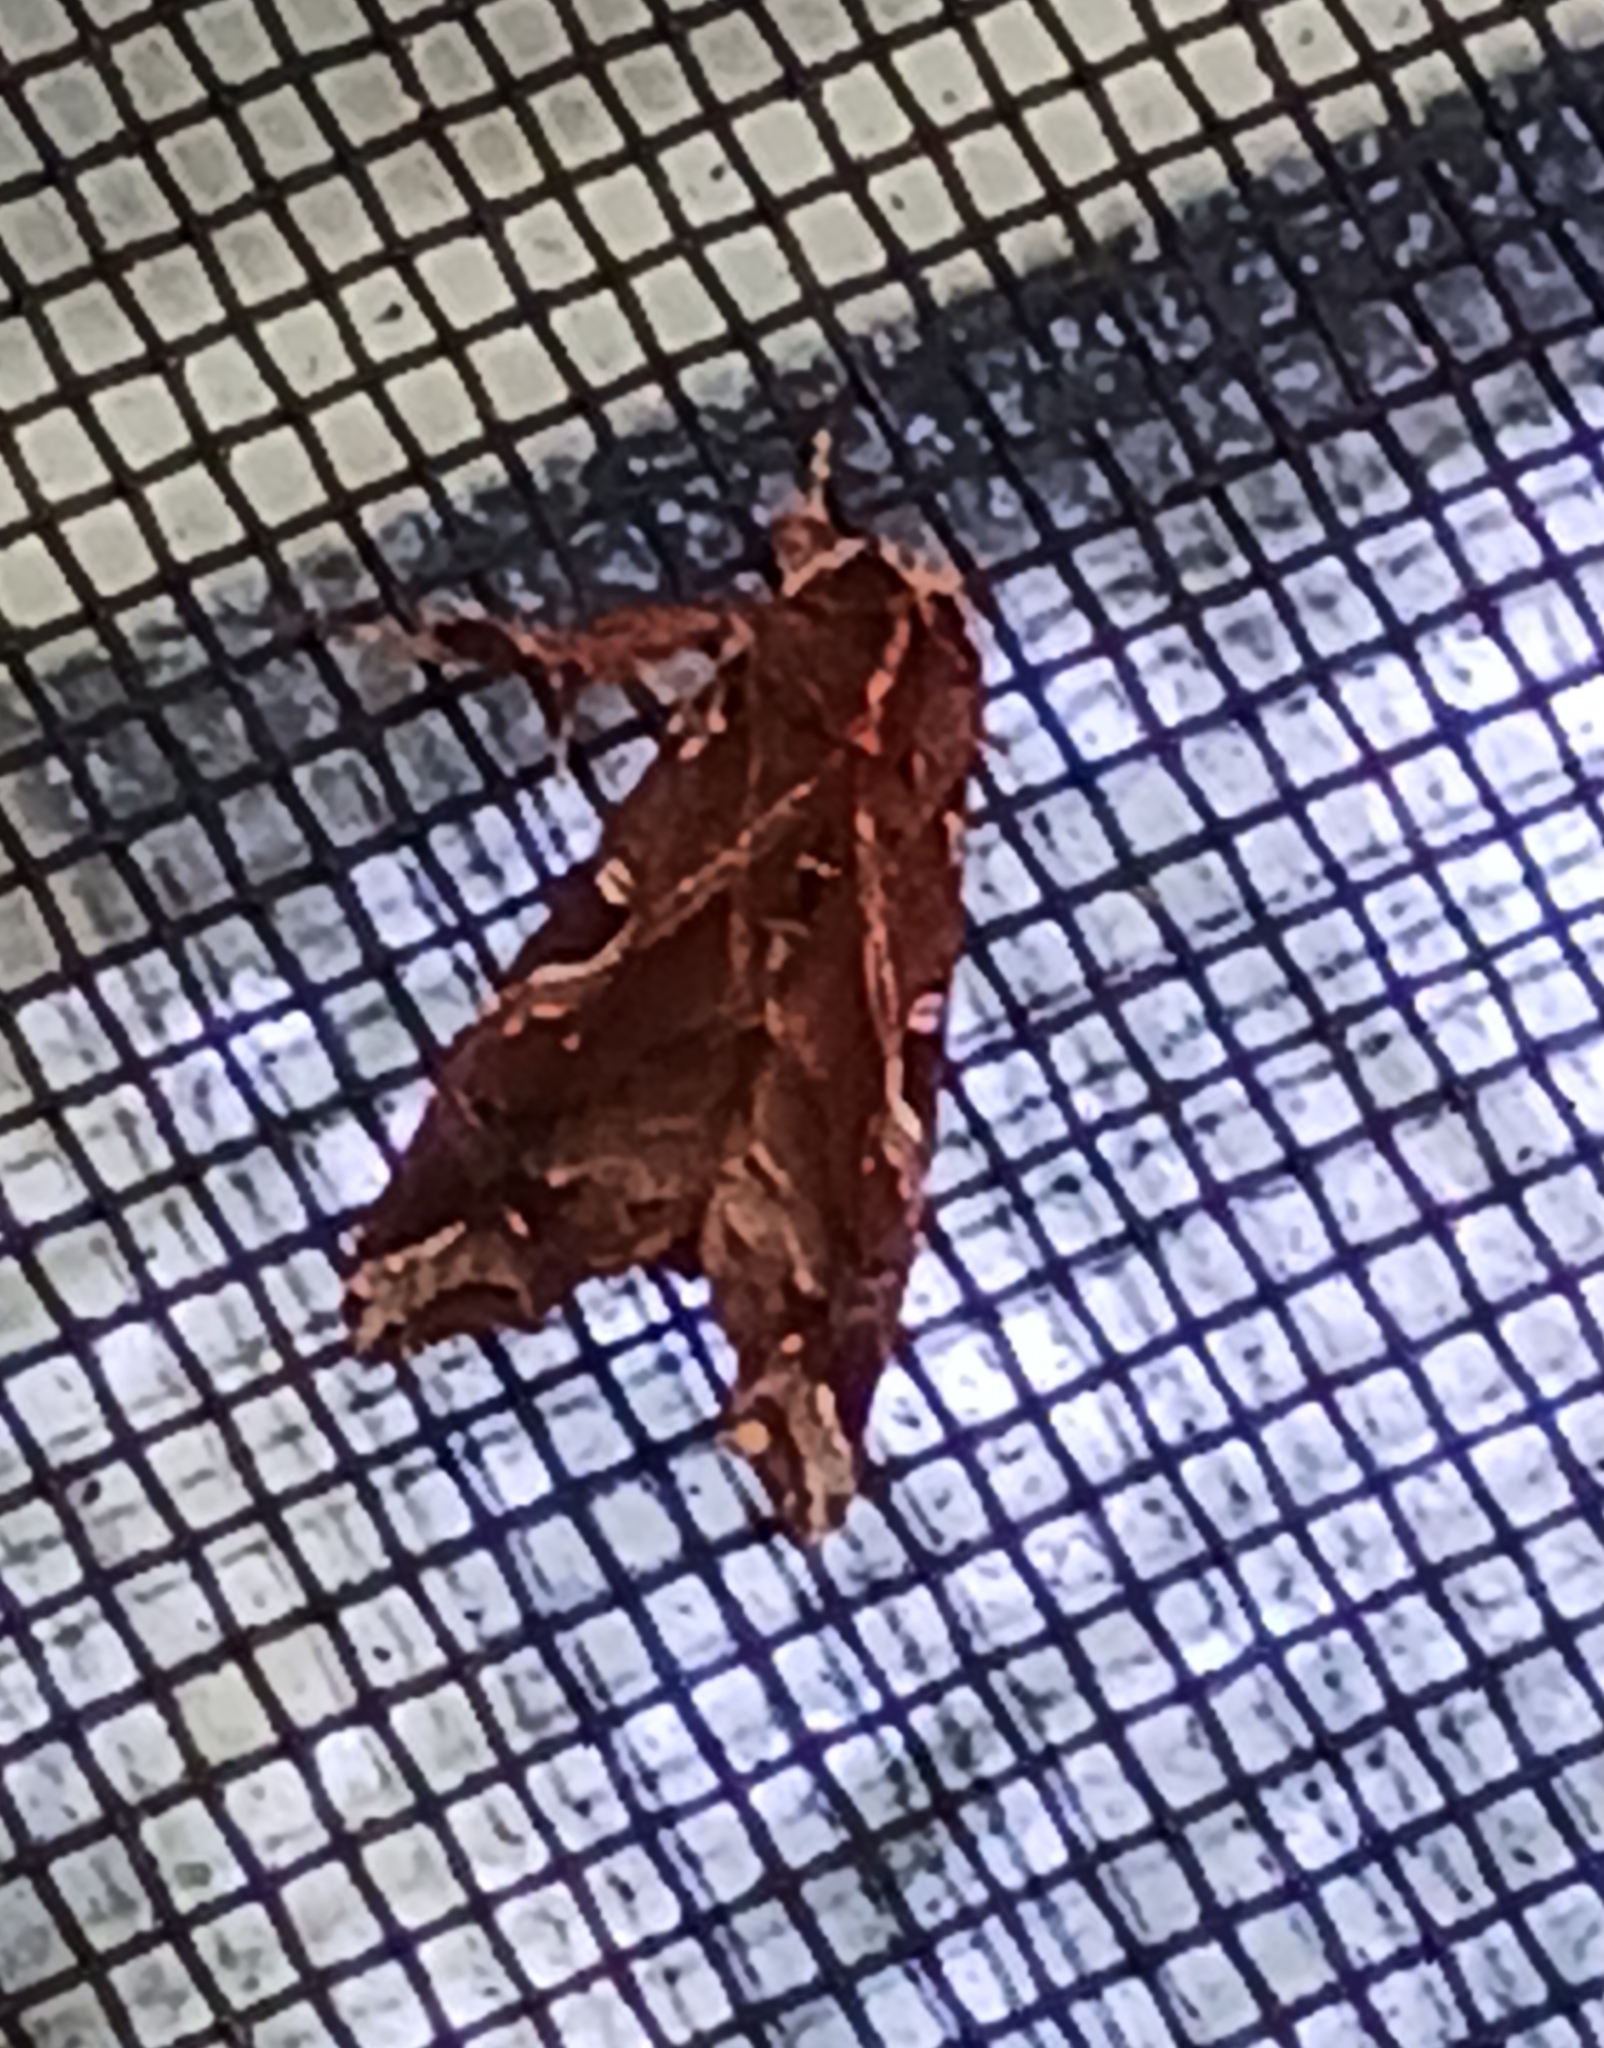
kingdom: Animalia
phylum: Arthropoda
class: Insecta
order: Lepidoptera
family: Noctuidae
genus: Callopistria
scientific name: Callopistria floridensis
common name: Florida fern moth
